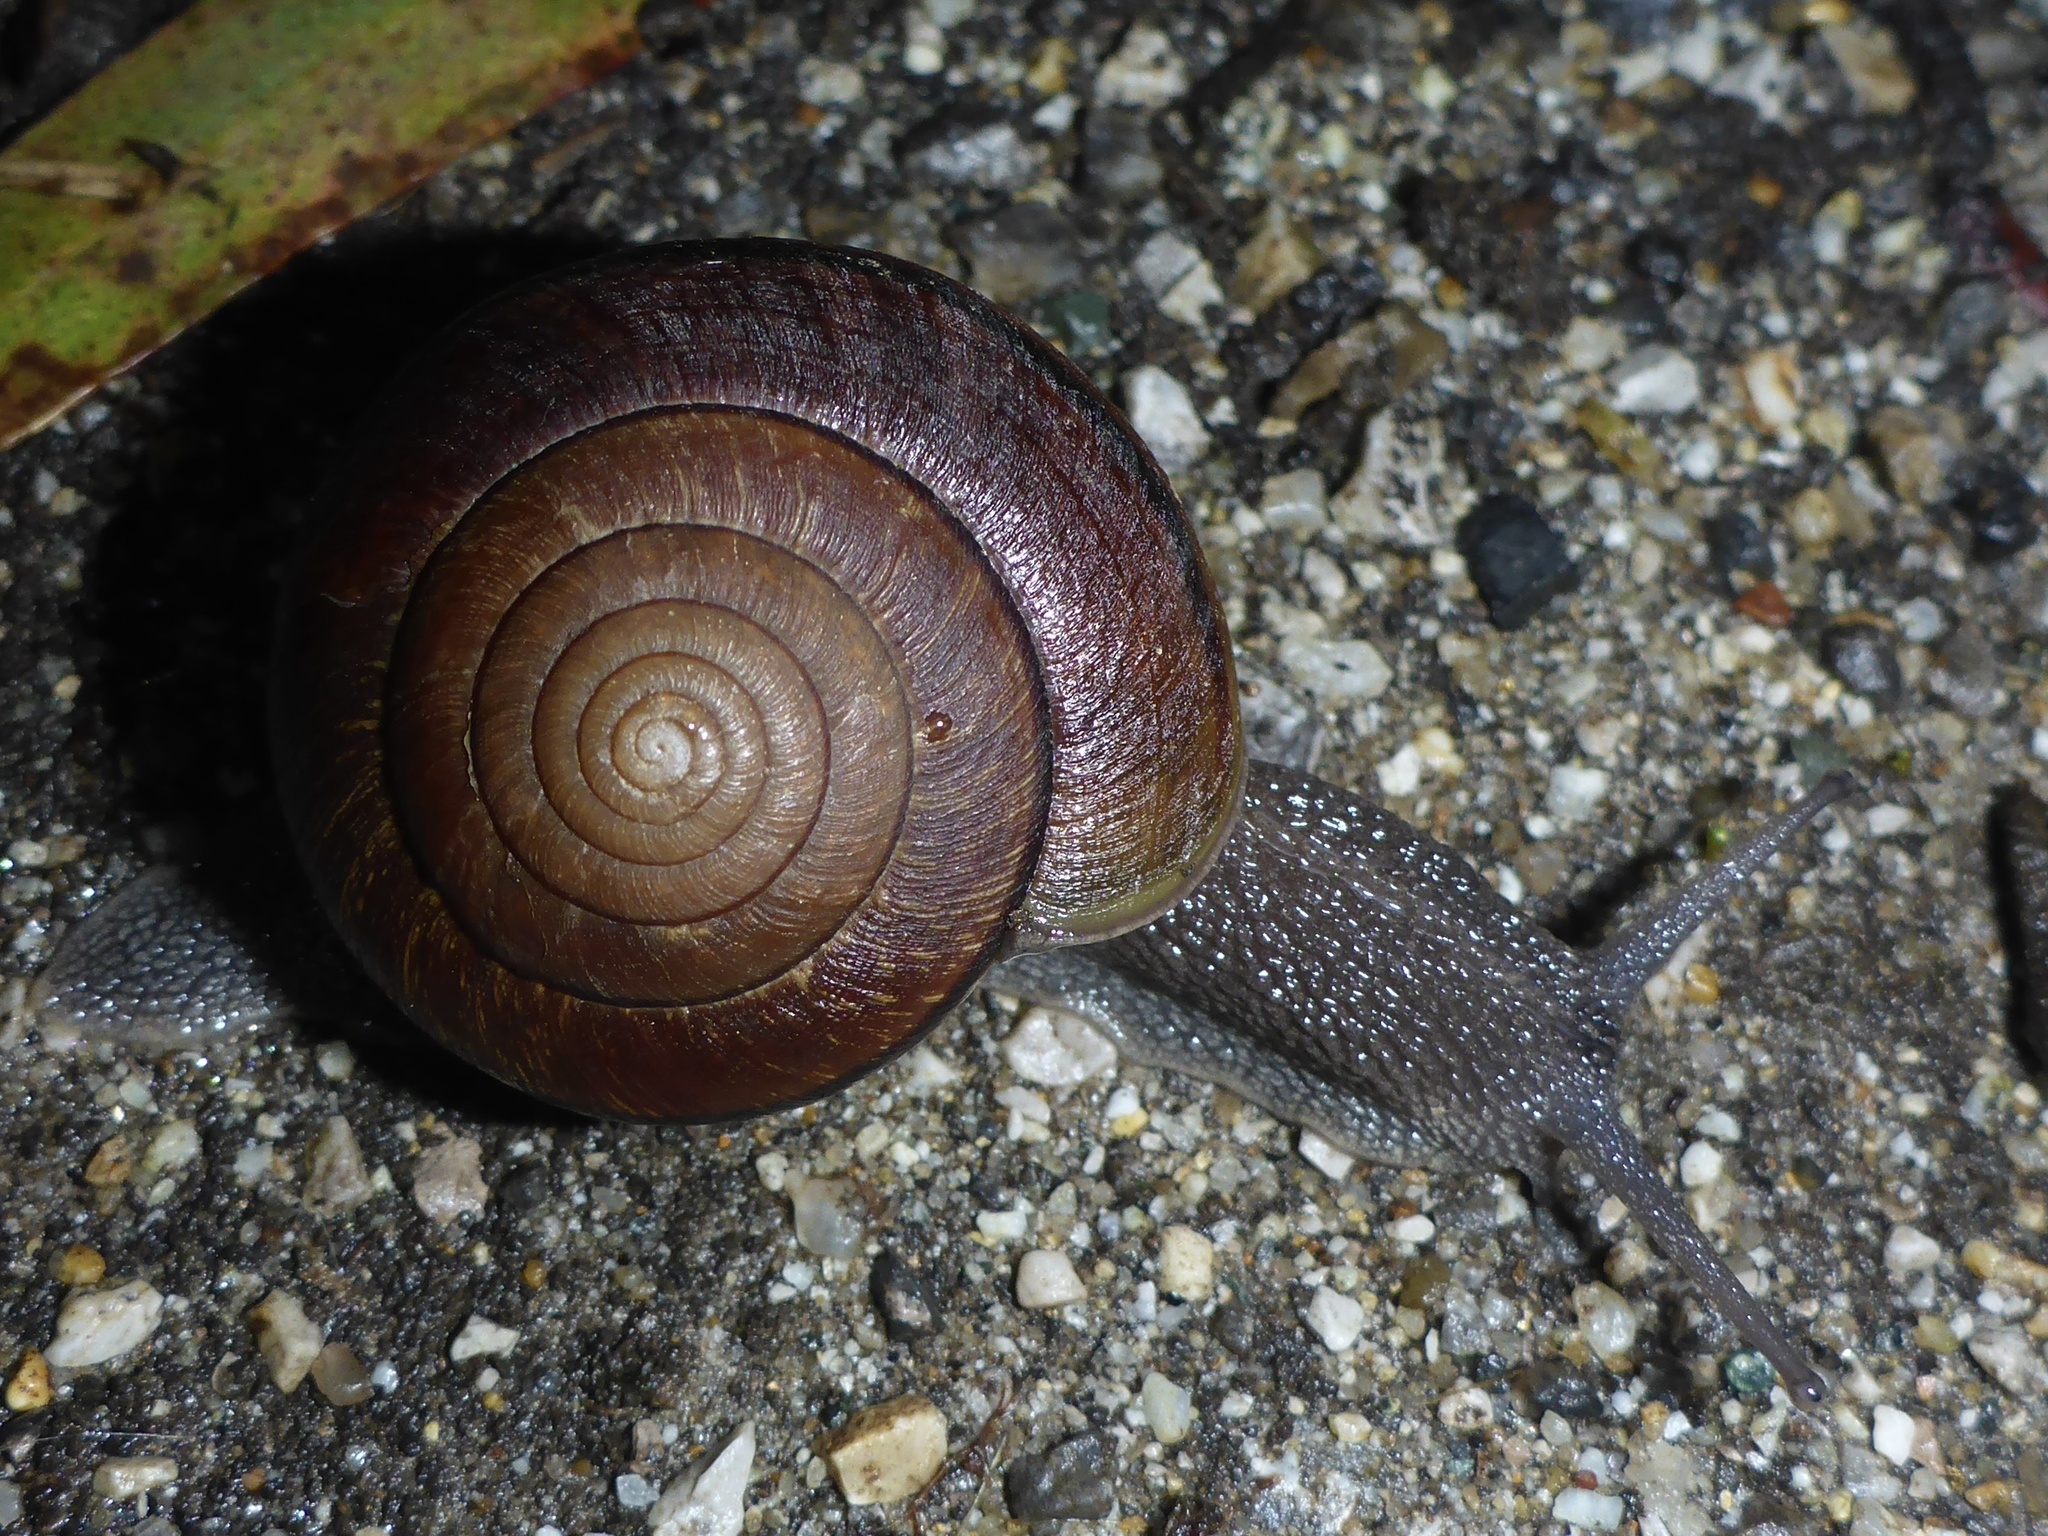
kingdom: Animalia
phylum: Mollusca
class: Gastropoda
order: Stylommatophora
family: Xanthonychidae
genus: Helminthoglypta
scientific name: Helminthoglypta arrosa
